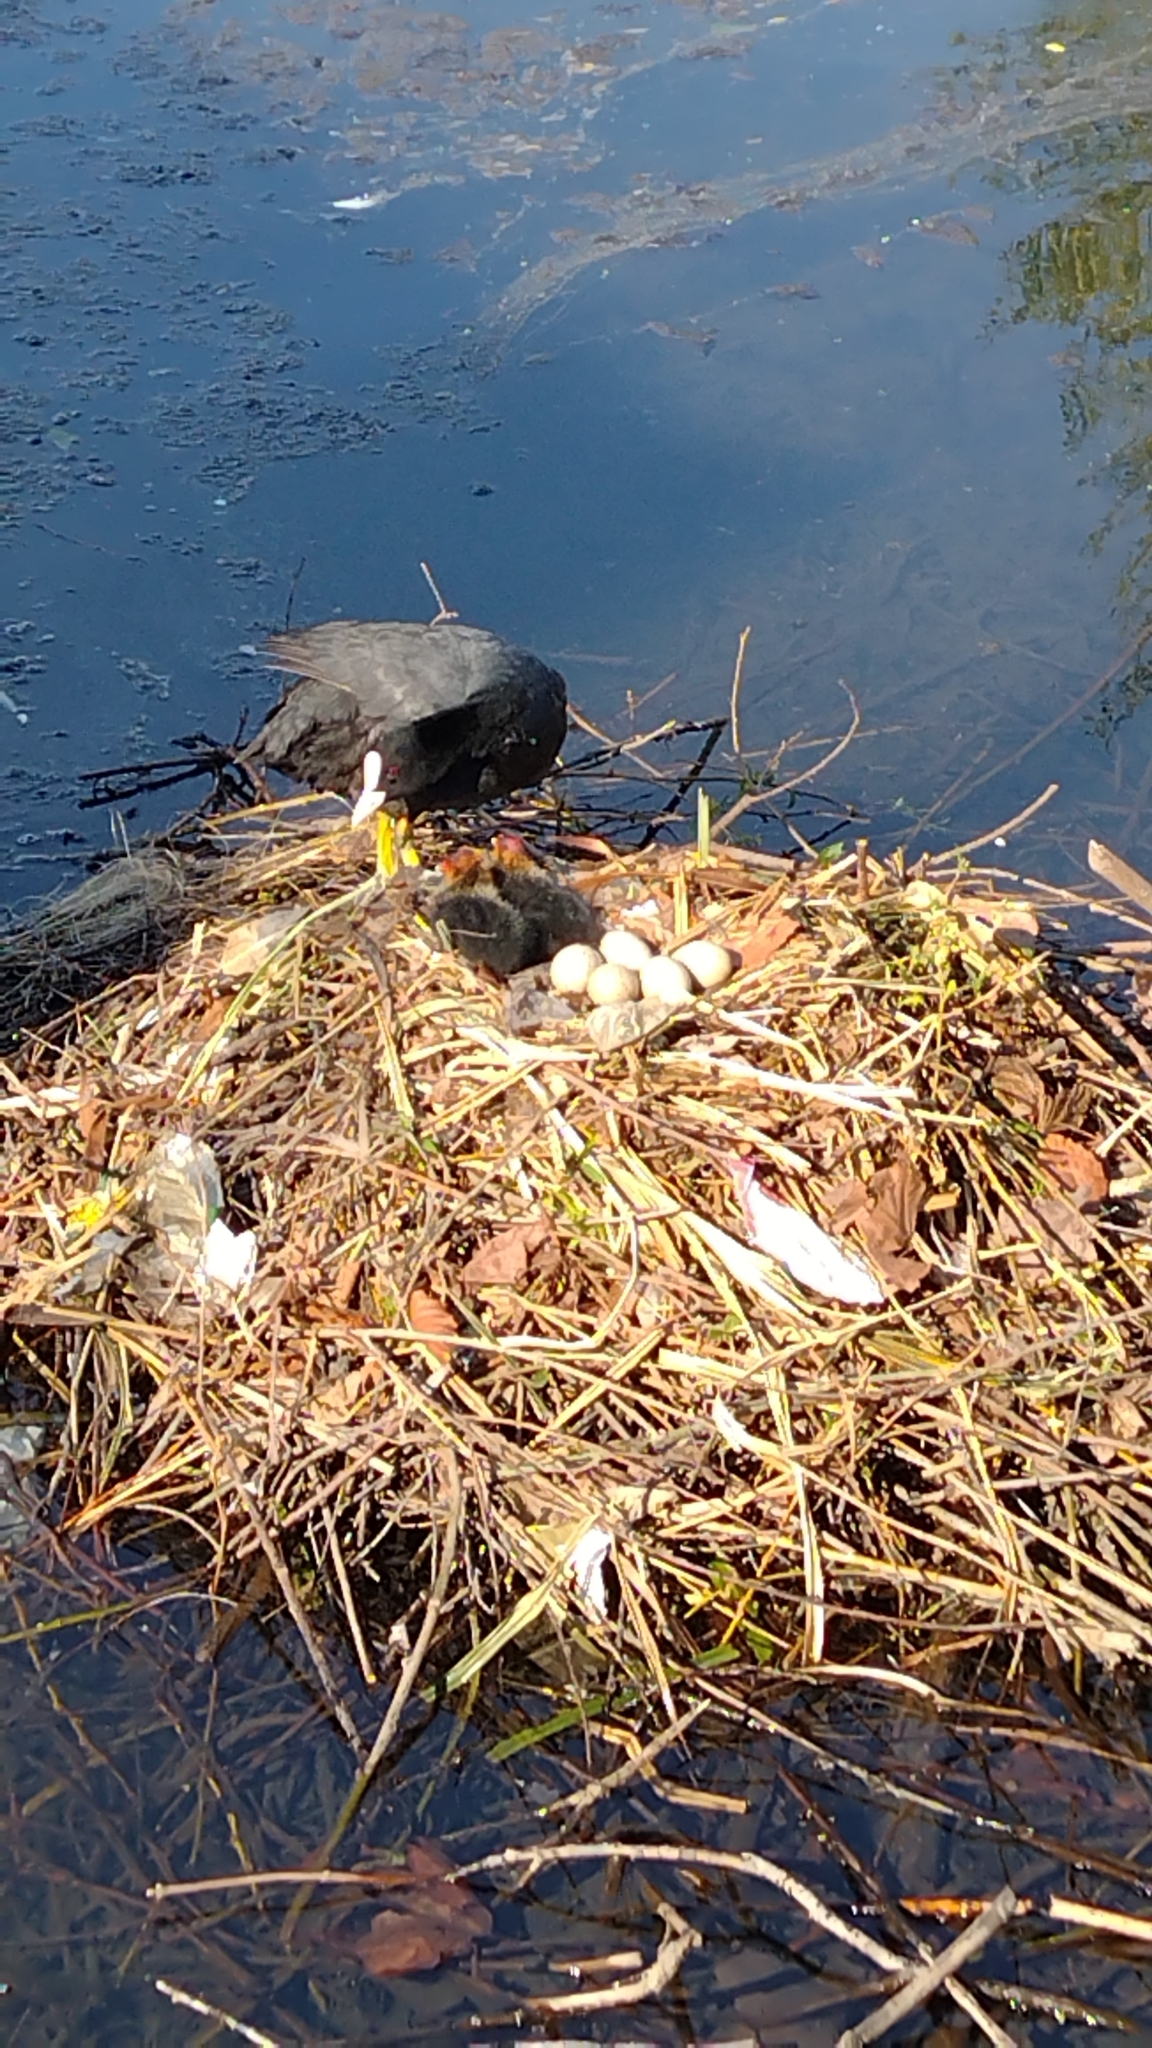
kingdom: Animalia
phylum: Chordata
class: Aves
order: Gruiformes
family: Rallidae
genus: Fulica
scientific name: Fulica atra
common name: Eurasian coot
